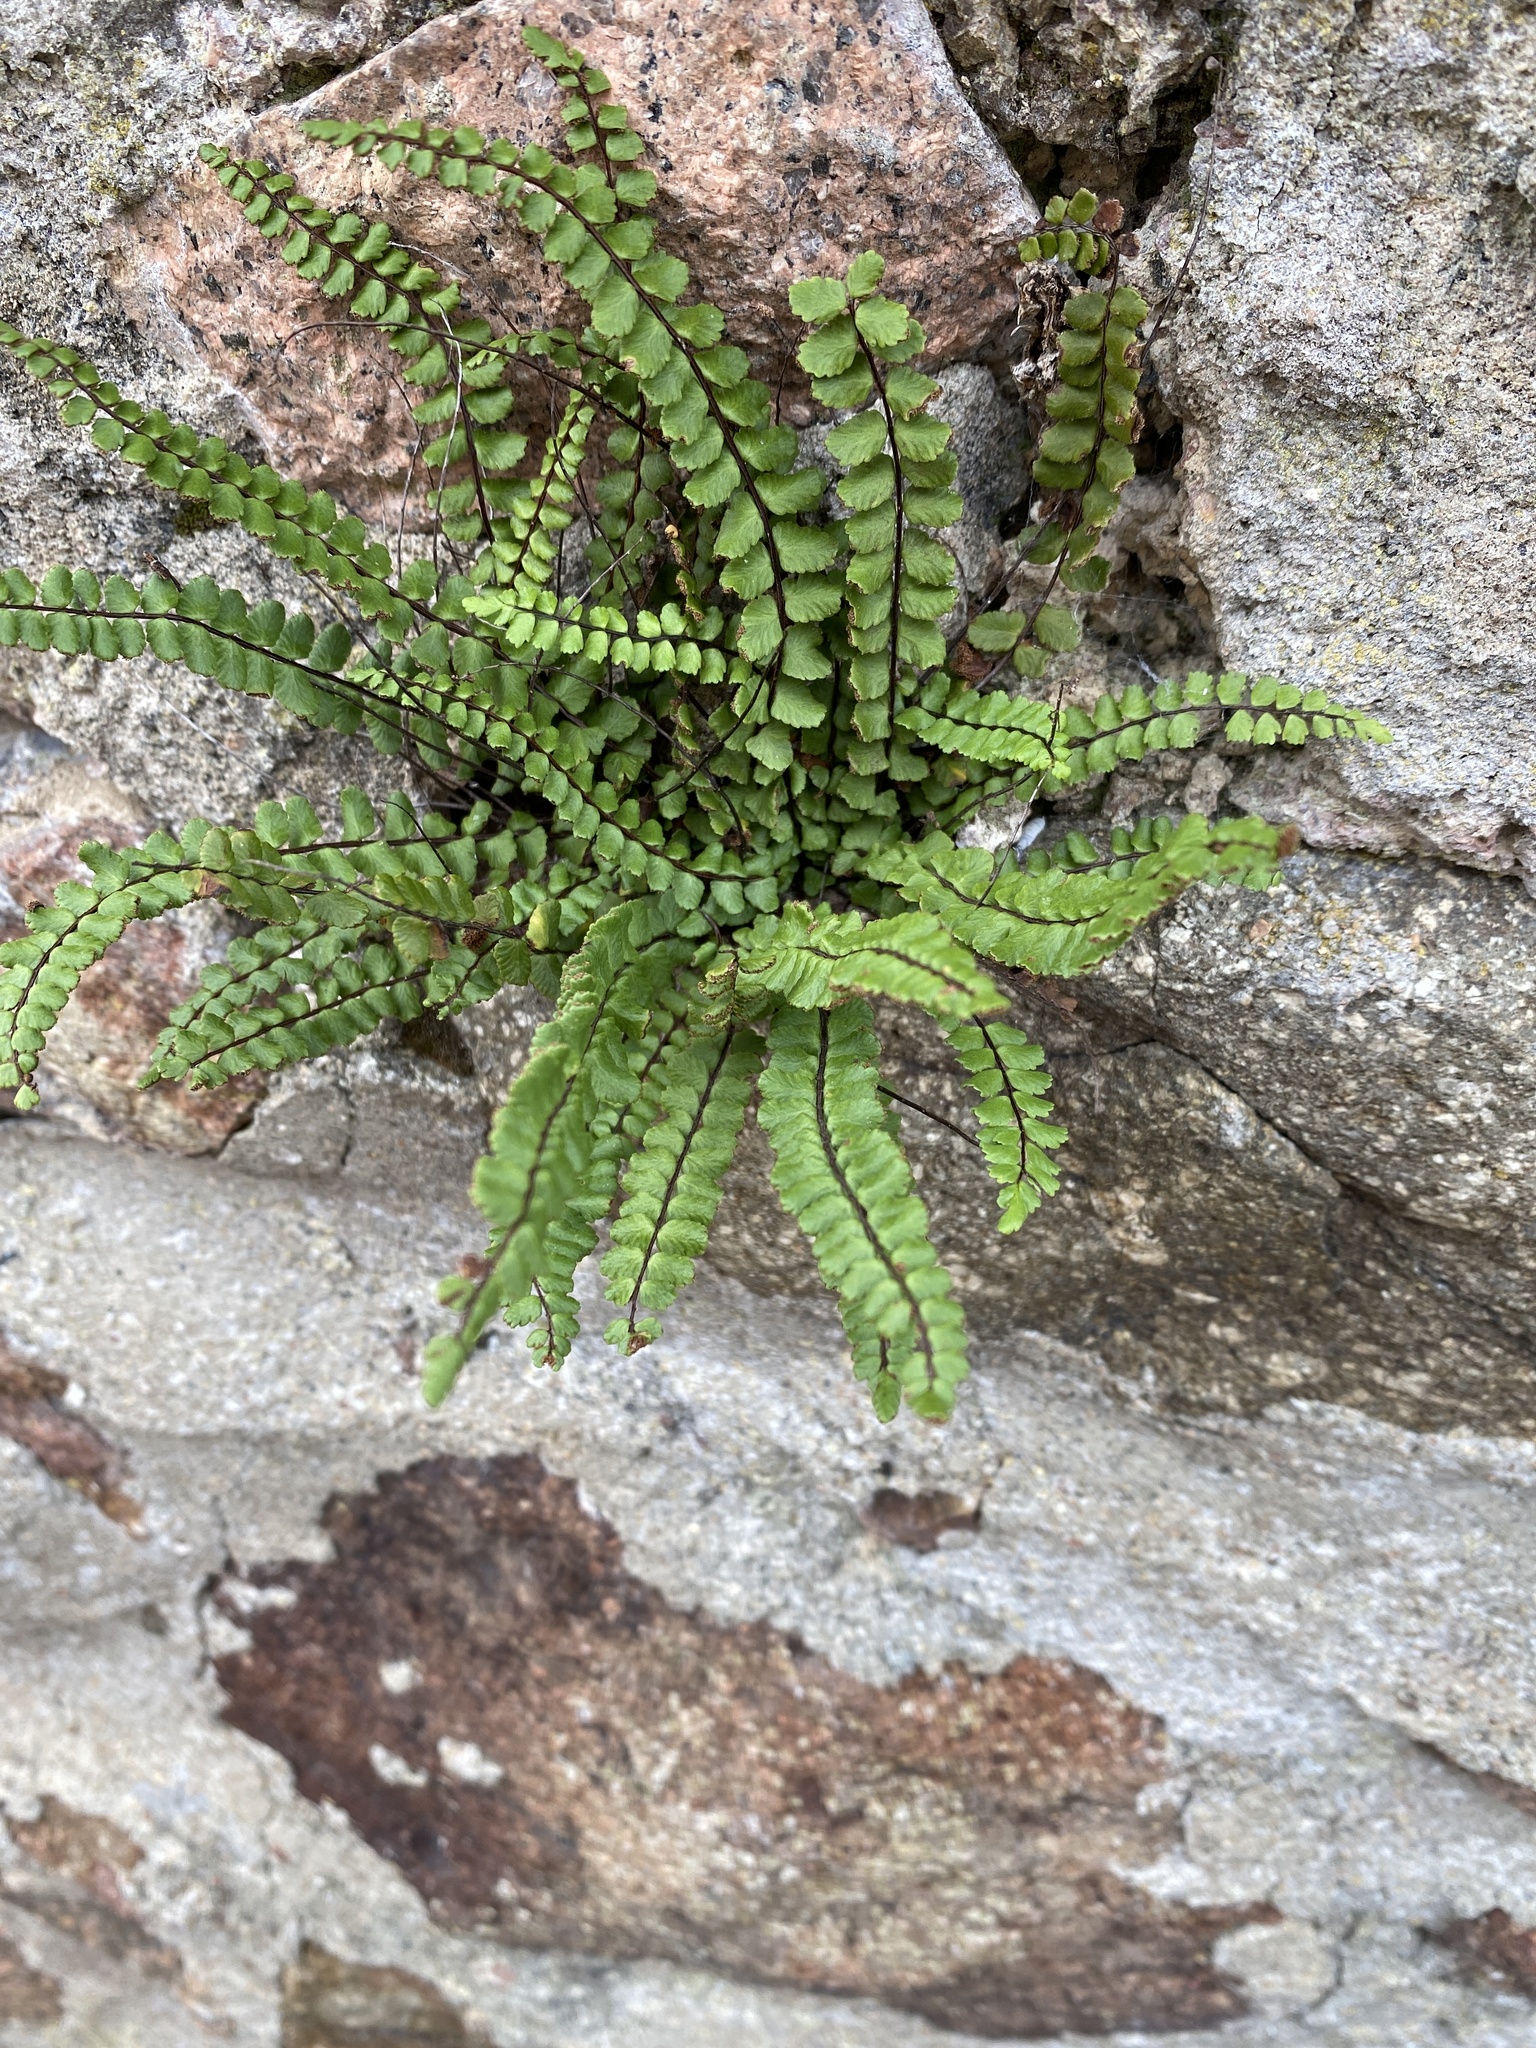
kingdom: Plantae
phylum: Tracheophyta
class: Polypodiopsida
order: Polypodiales
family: Aspleniaceae
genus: Asplenium
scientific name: Asplenium trichomanes
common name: Maidenhair spleenwort
